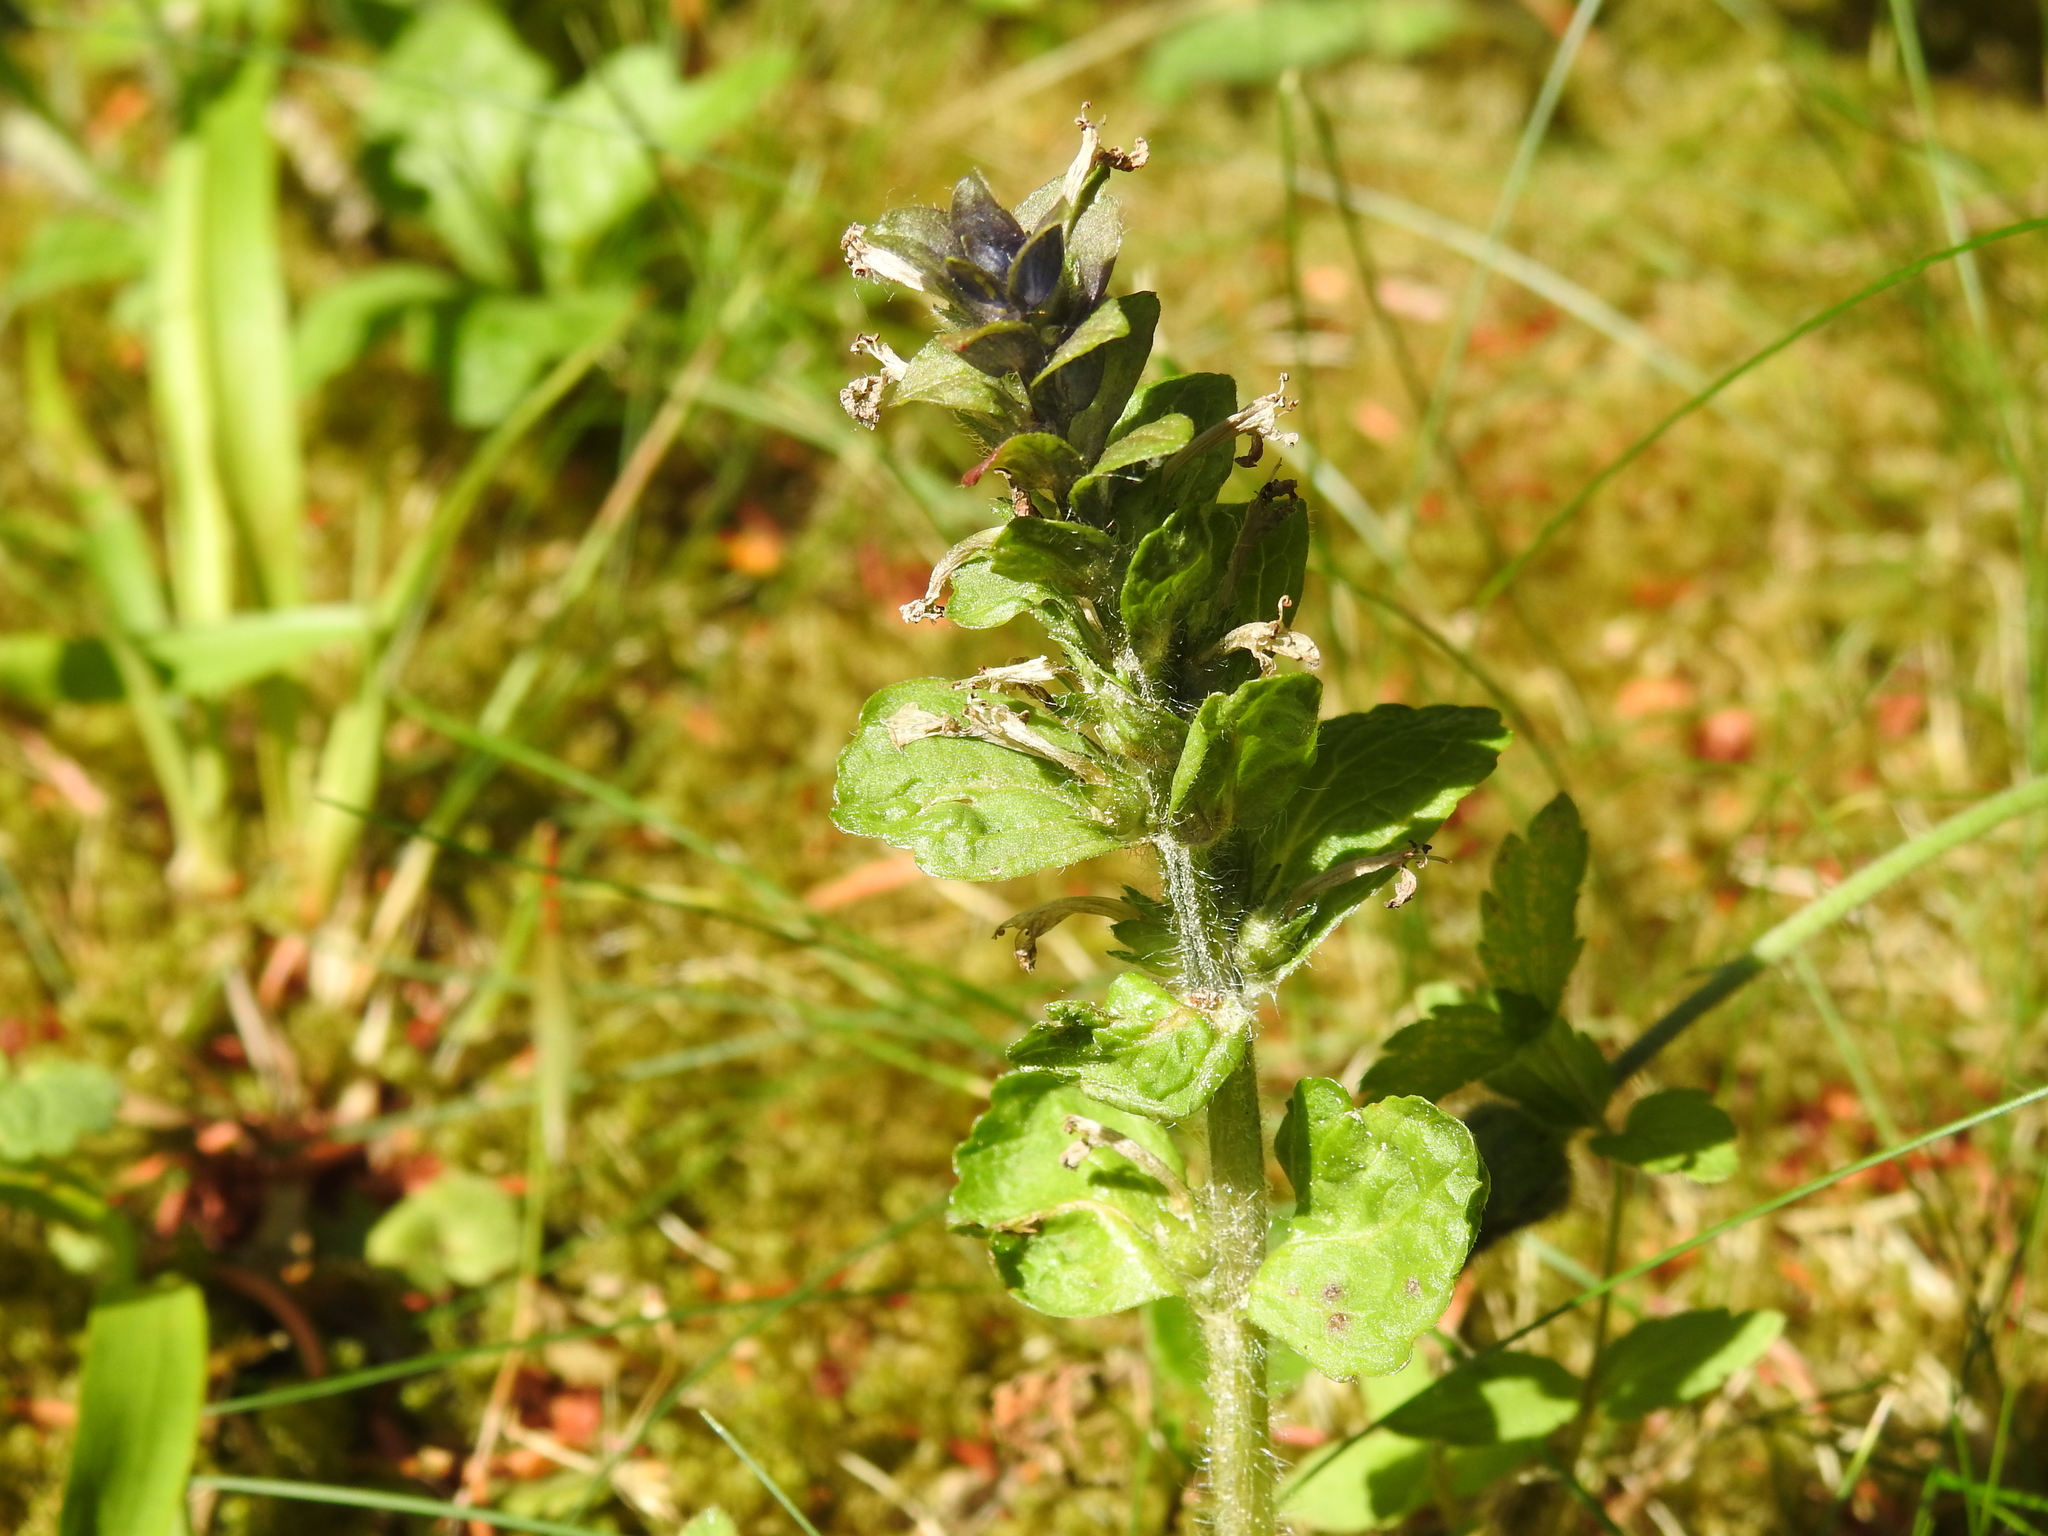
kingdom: Plantae
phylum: Tracheophyta
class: Magnoliopsida
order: Lamiales
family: Lamiaceae
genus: Ajuga
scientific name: Ajuga reptans
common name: Bugle
